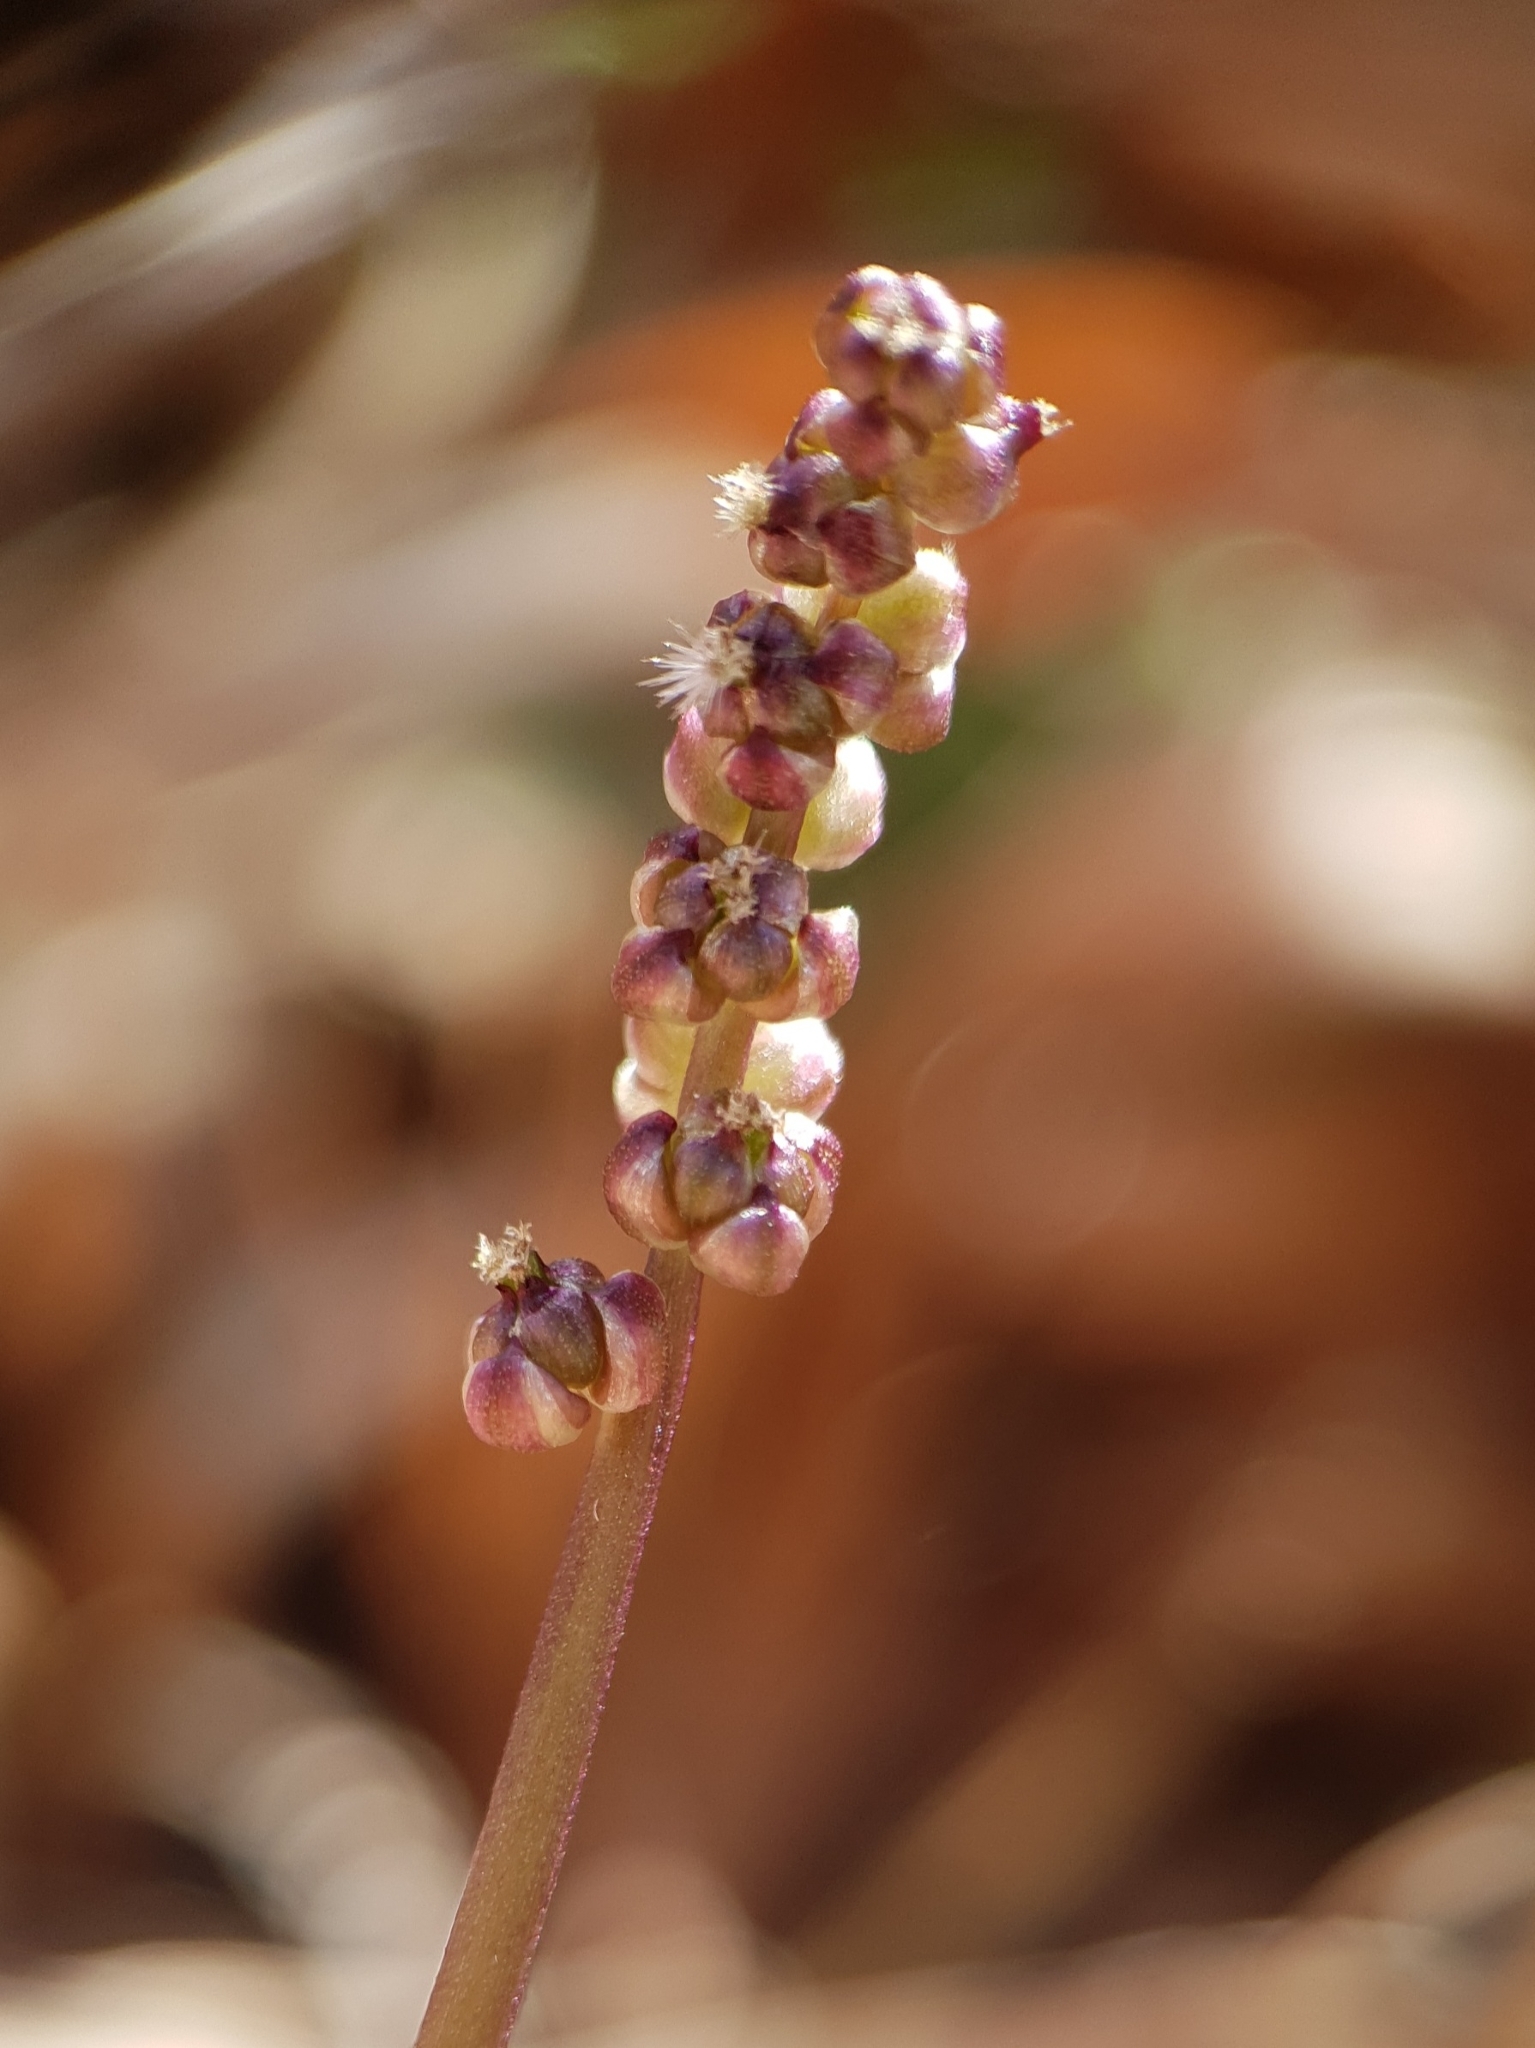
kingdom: Plantae
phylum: Tracheophyta
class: Liliopsida
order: Alismatales
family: Juncaginaceae
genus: Triglochin
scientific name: Triglochin laxiflora
